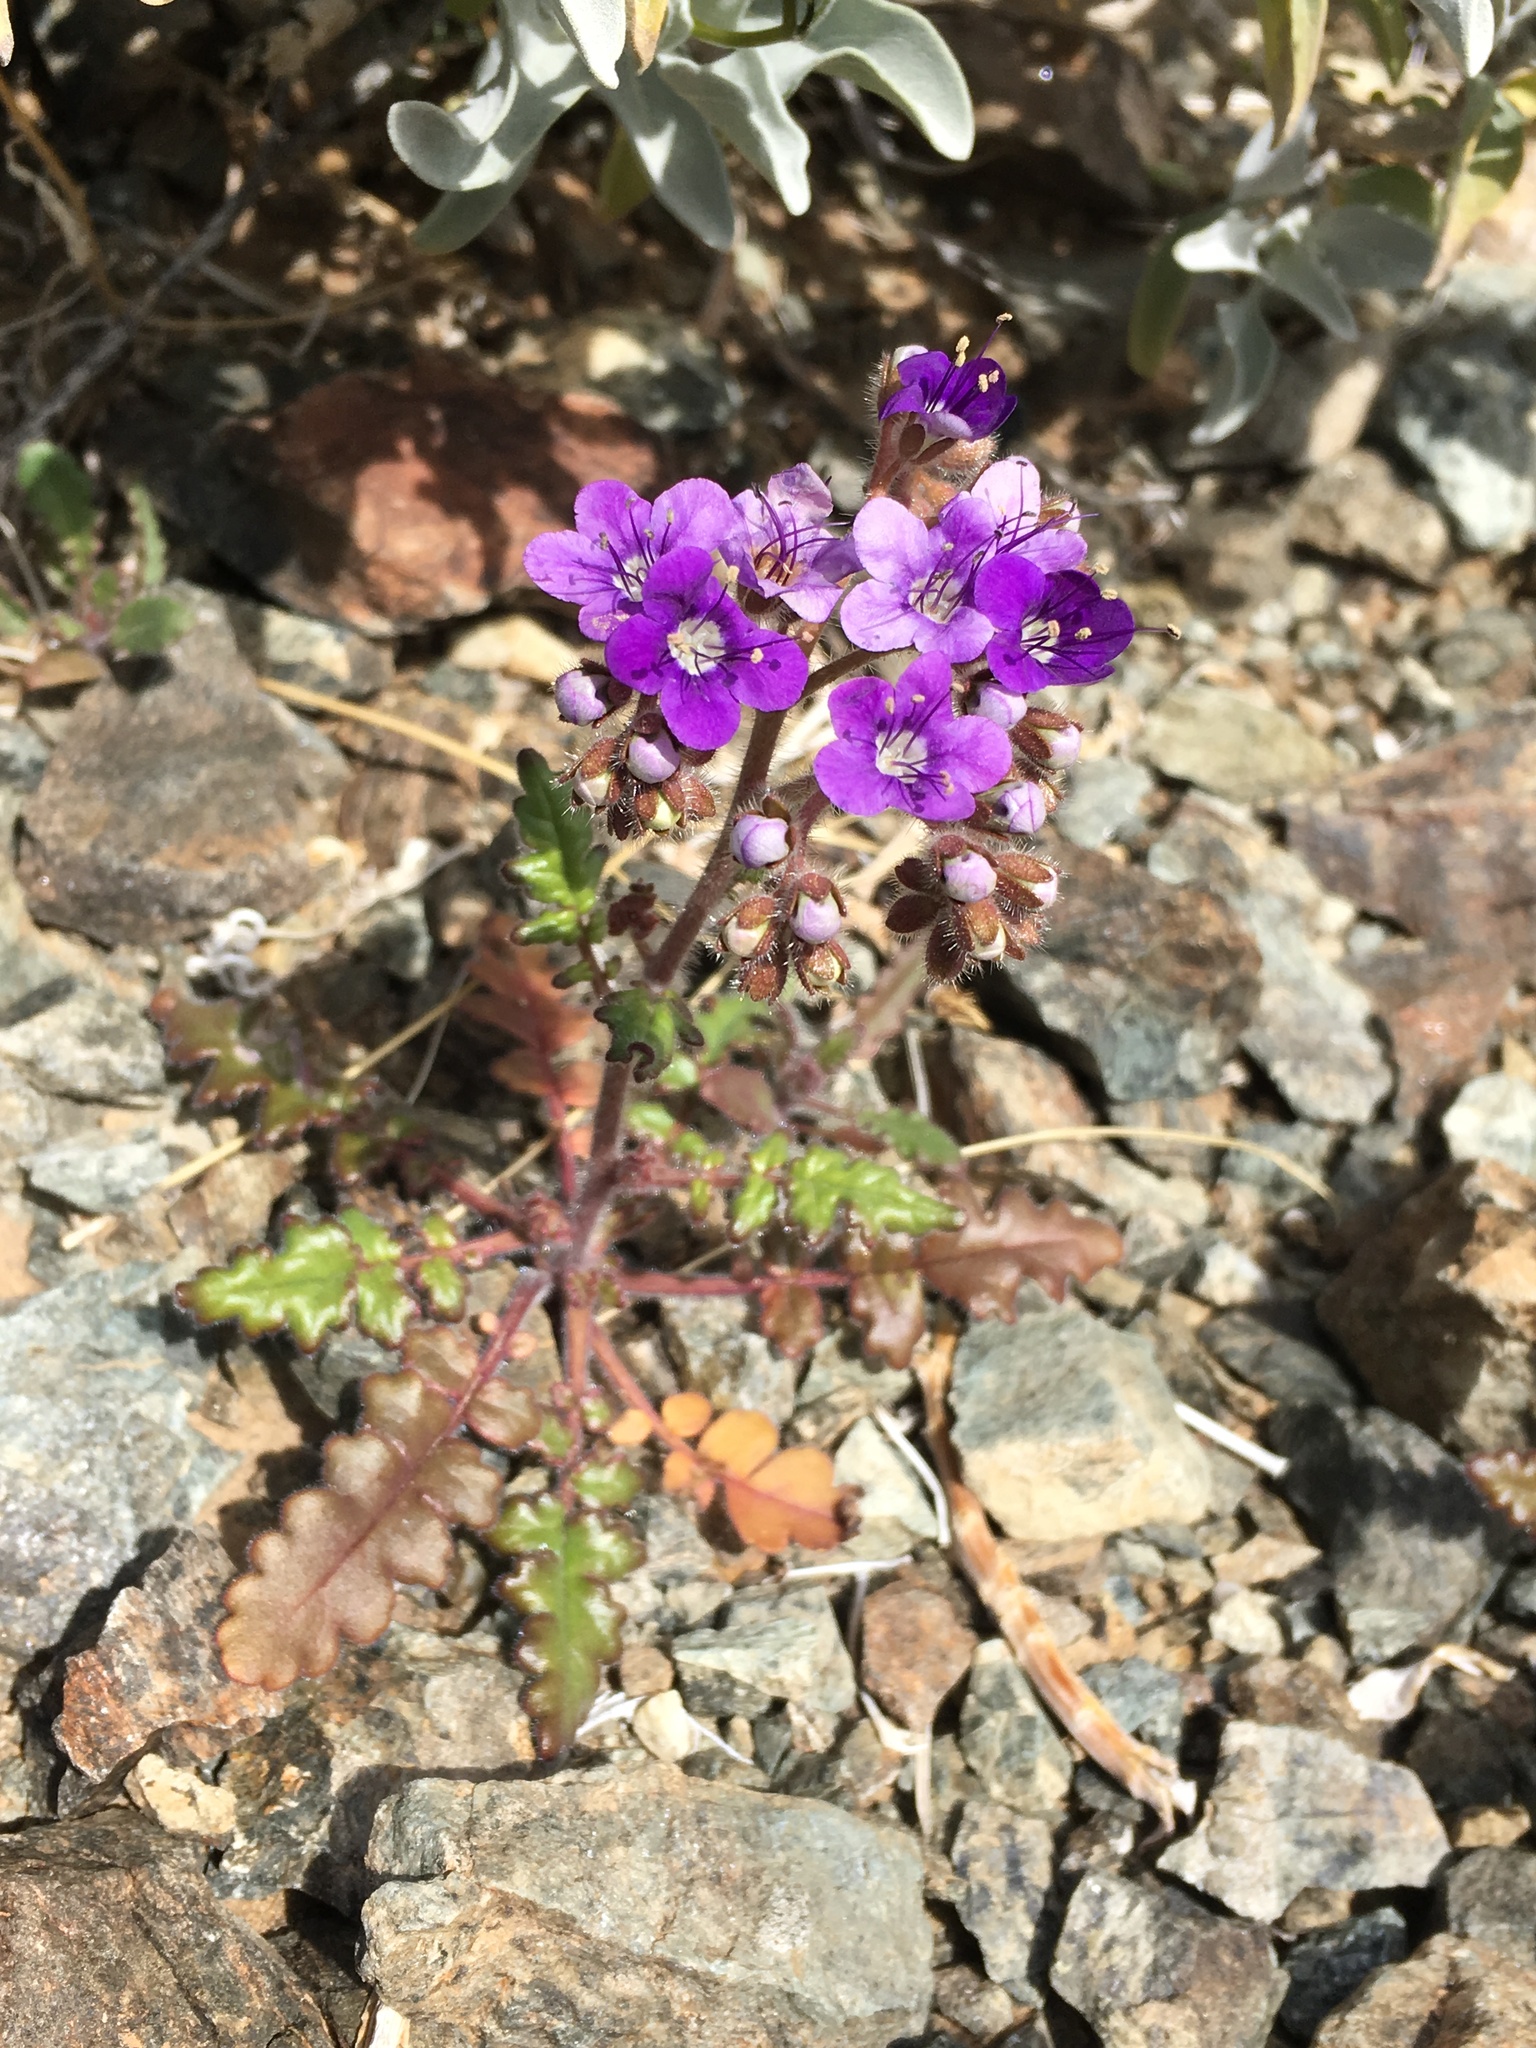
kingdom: Plantae
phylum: Tracheophyta
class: Magnoliopsida
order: Boraginales
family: Hydrophyllaceae
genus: Phacelia
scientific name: Phacelia crenulata
